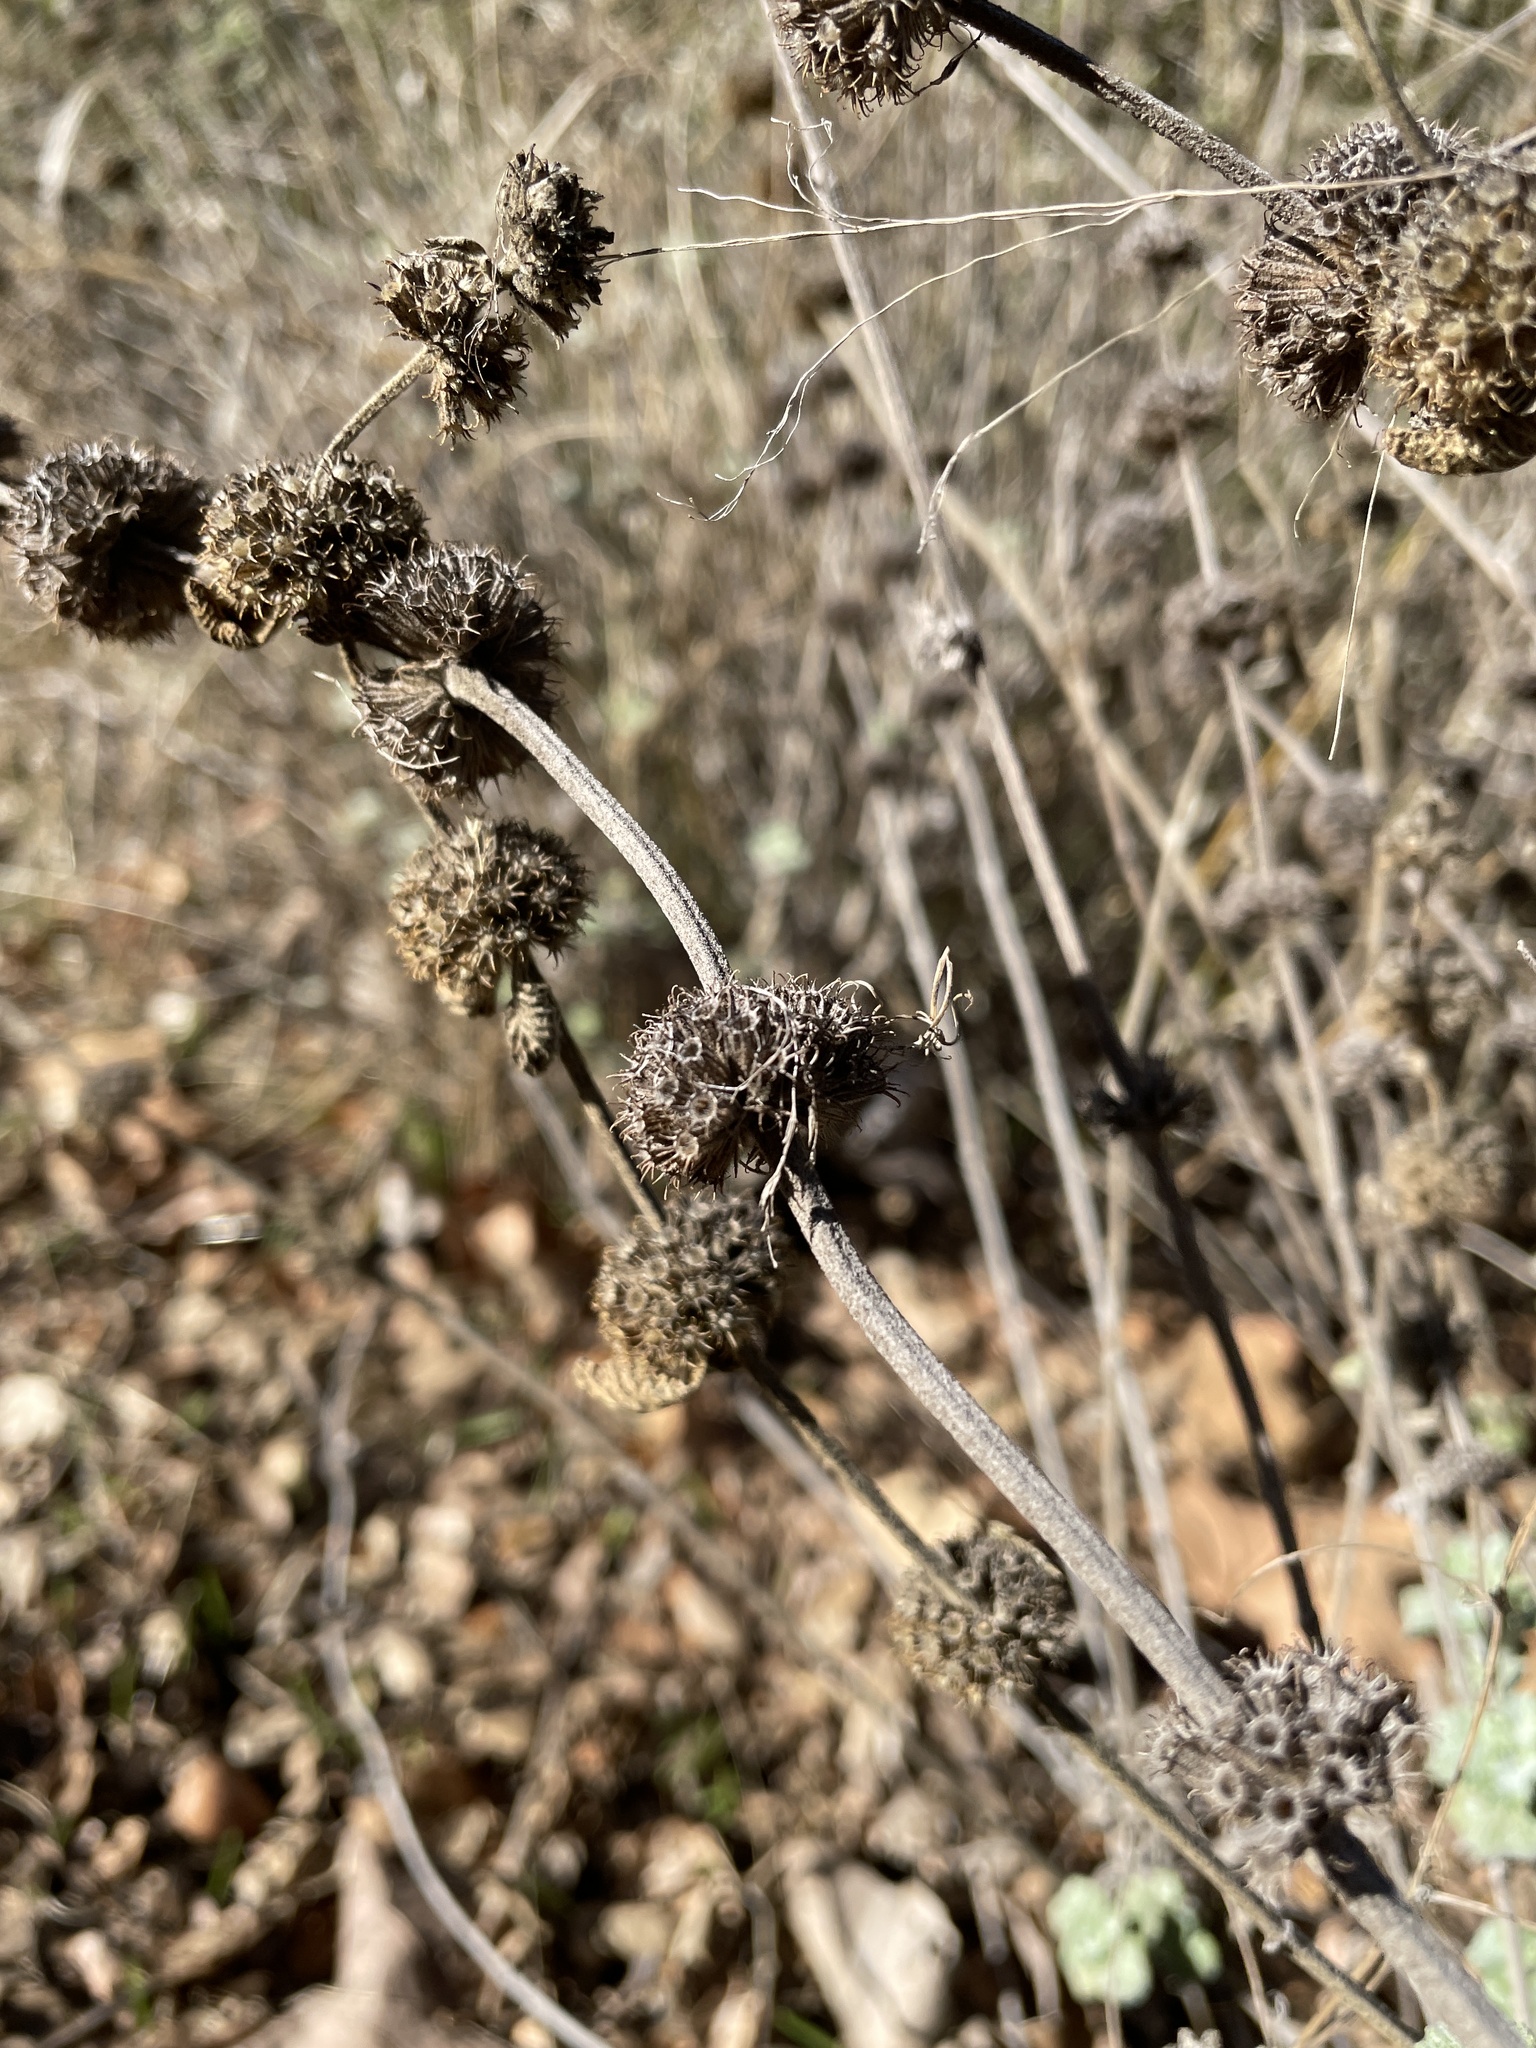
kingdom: Plantae
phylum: Tracheophyta
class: Magnoliopsida
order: Lamiales
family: Lamiaceae
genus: Marrubium
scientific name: Marrubium vulgare
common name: Horehound
